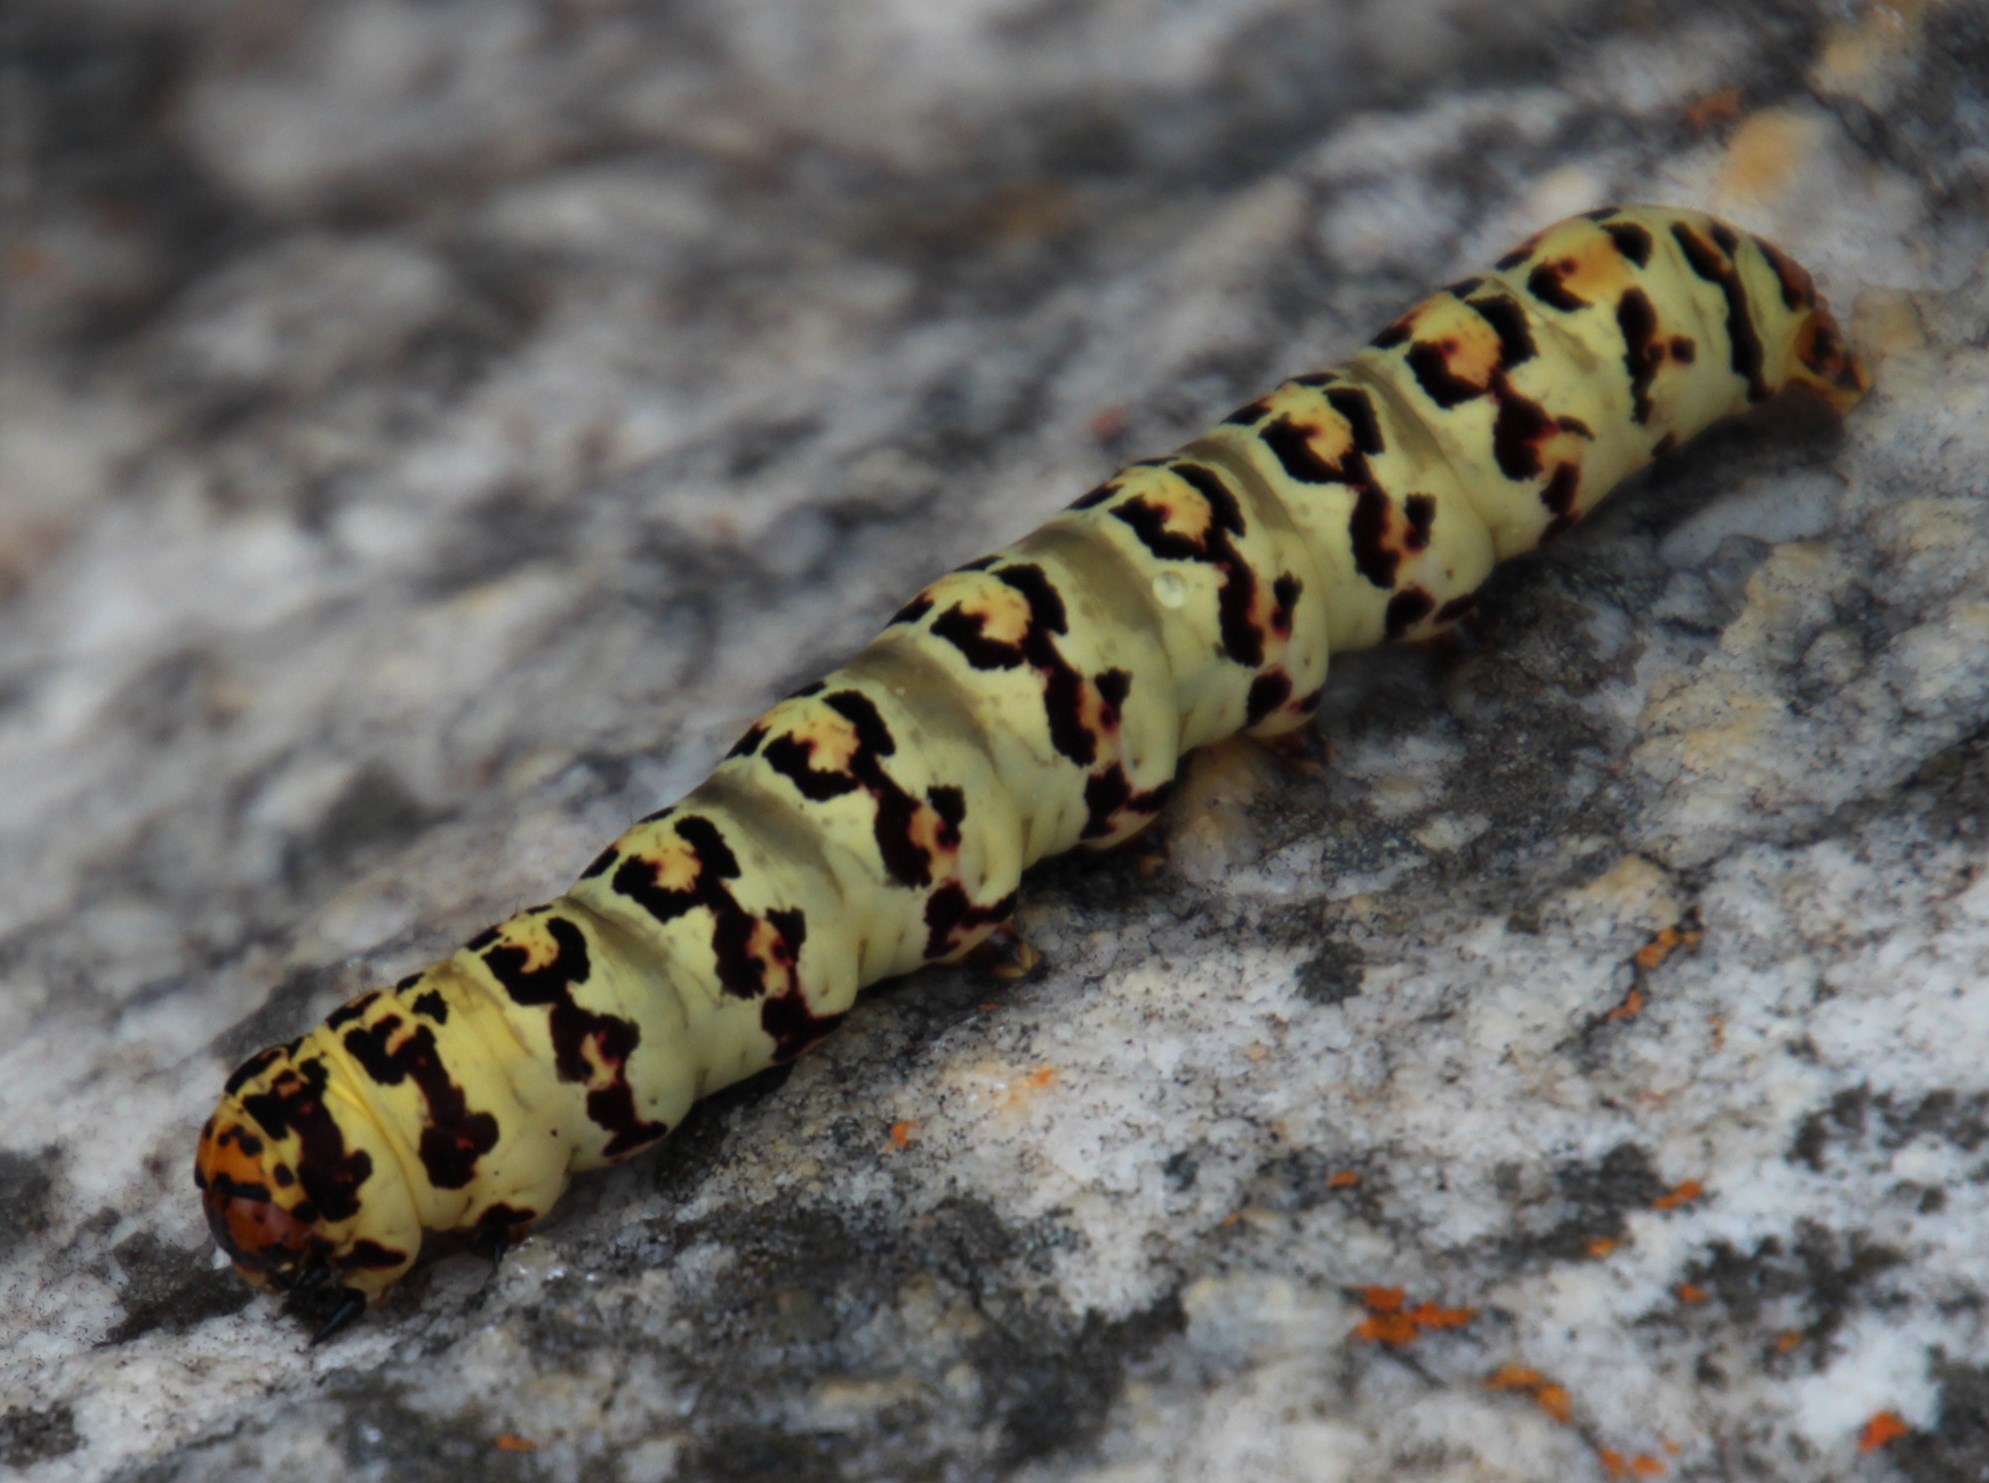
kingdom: Animalia
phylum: Arthropoda
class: Insecta
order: Lepidoptera
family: Noctuidae
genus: Diaphone
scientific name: Diaphone eumela
